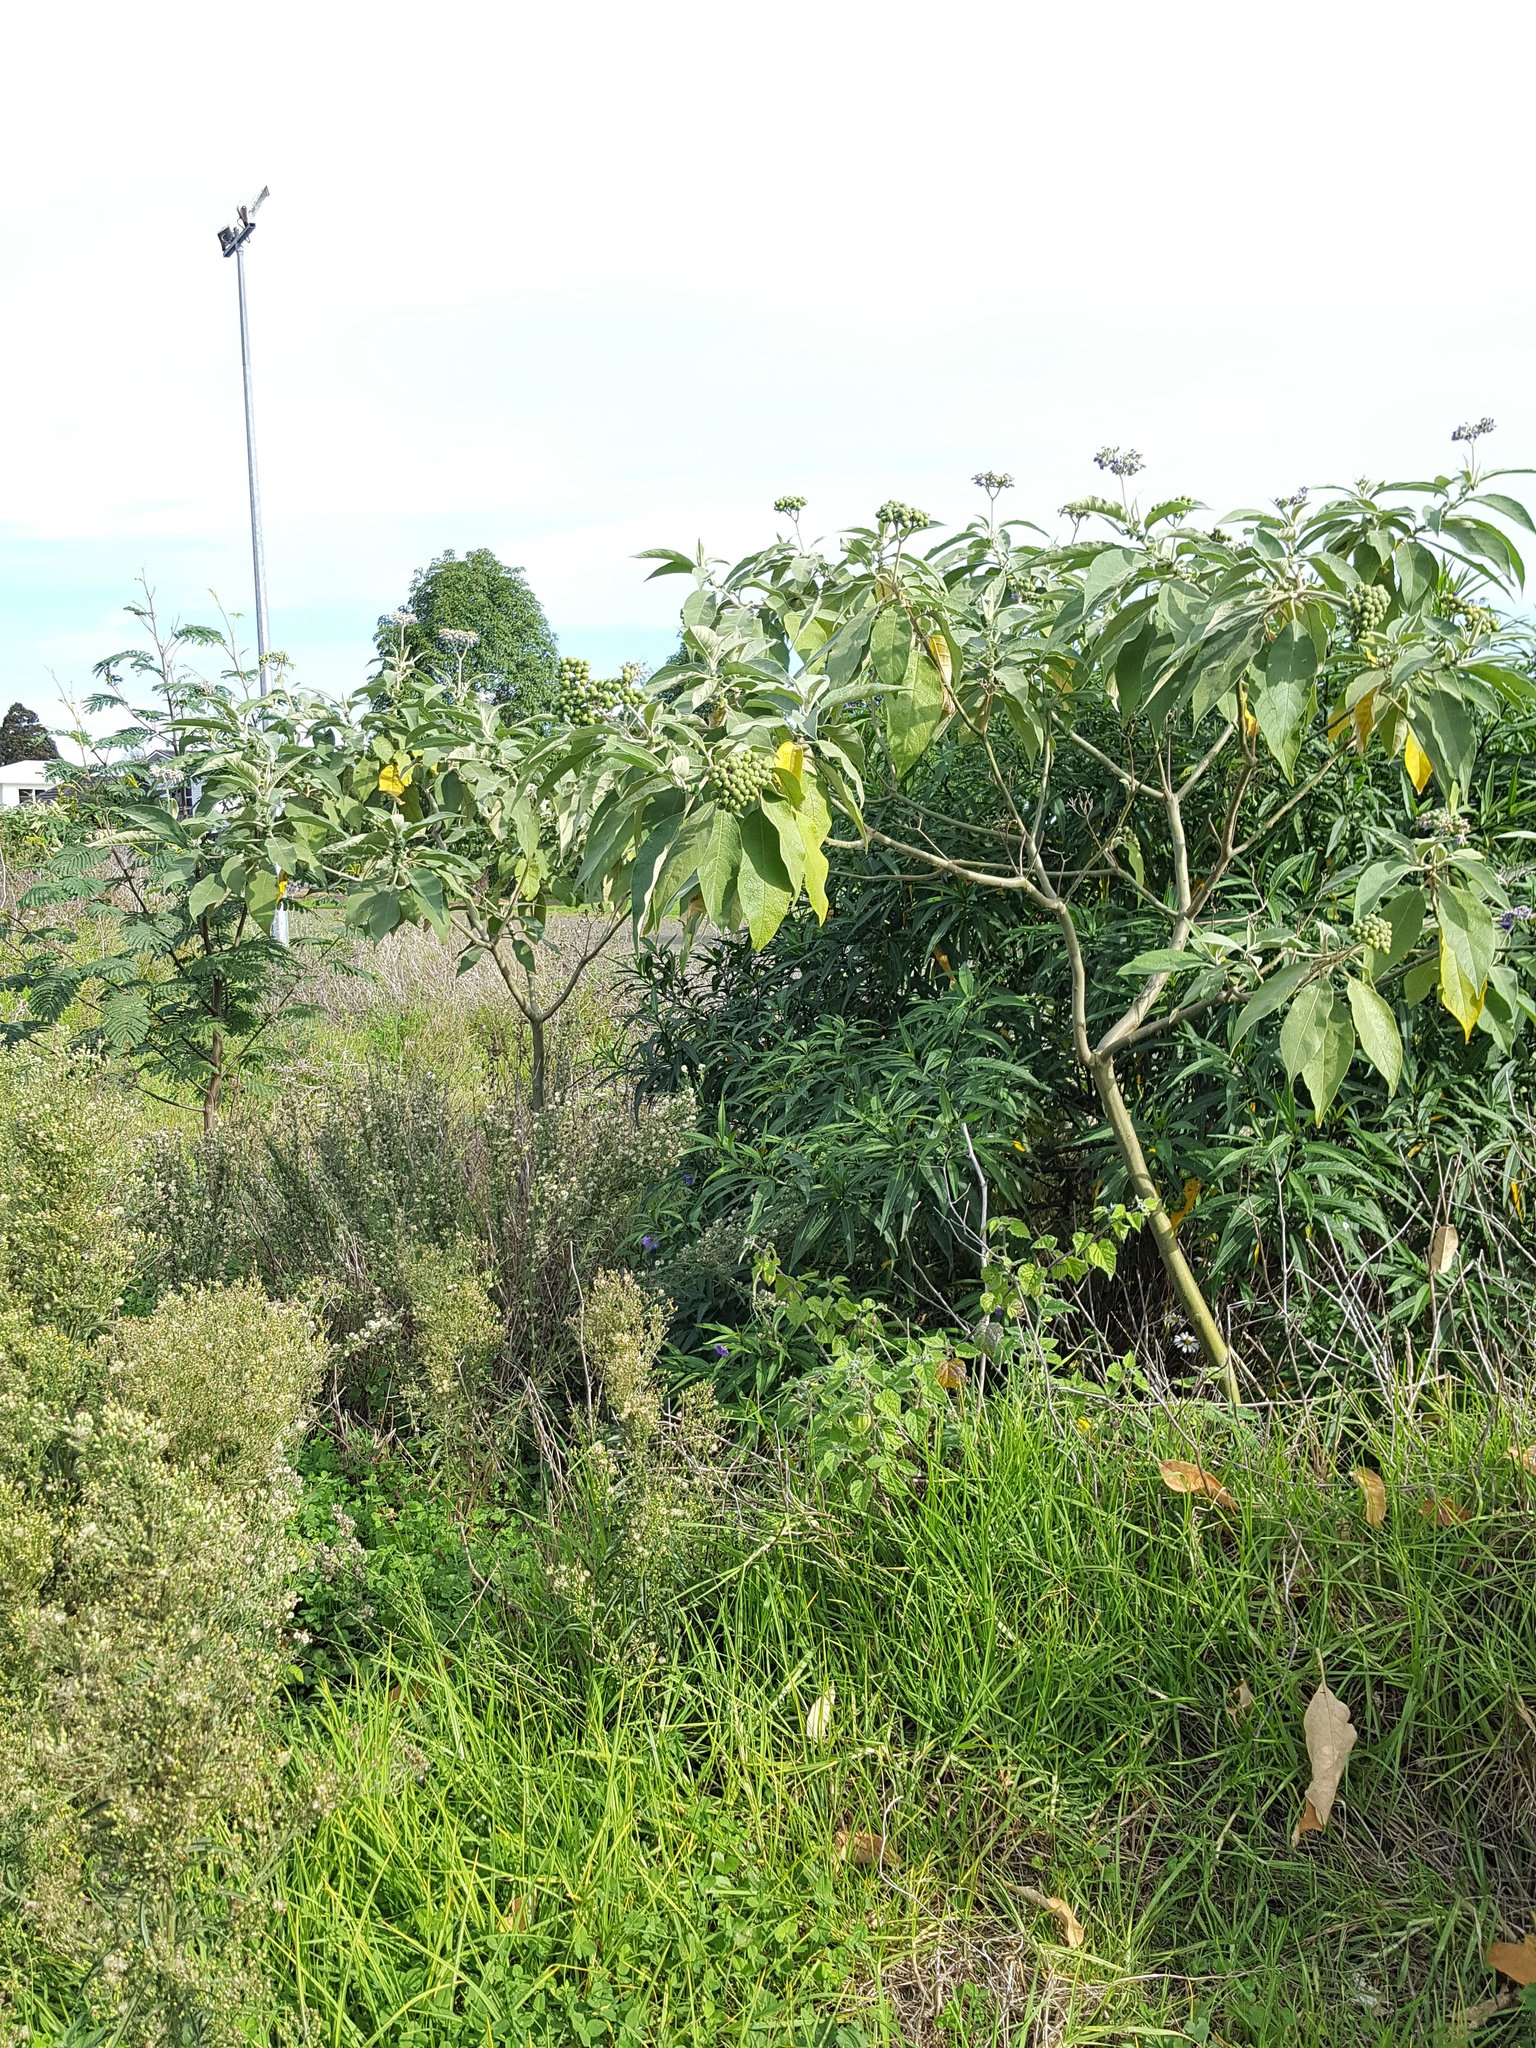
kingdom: Plantae
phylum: Tracheophyta
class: Magnoliopsida
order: Solanales
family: Solanaceae
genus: Solanum
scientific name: Solanum mauritianum
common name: Earleaf nightshade
